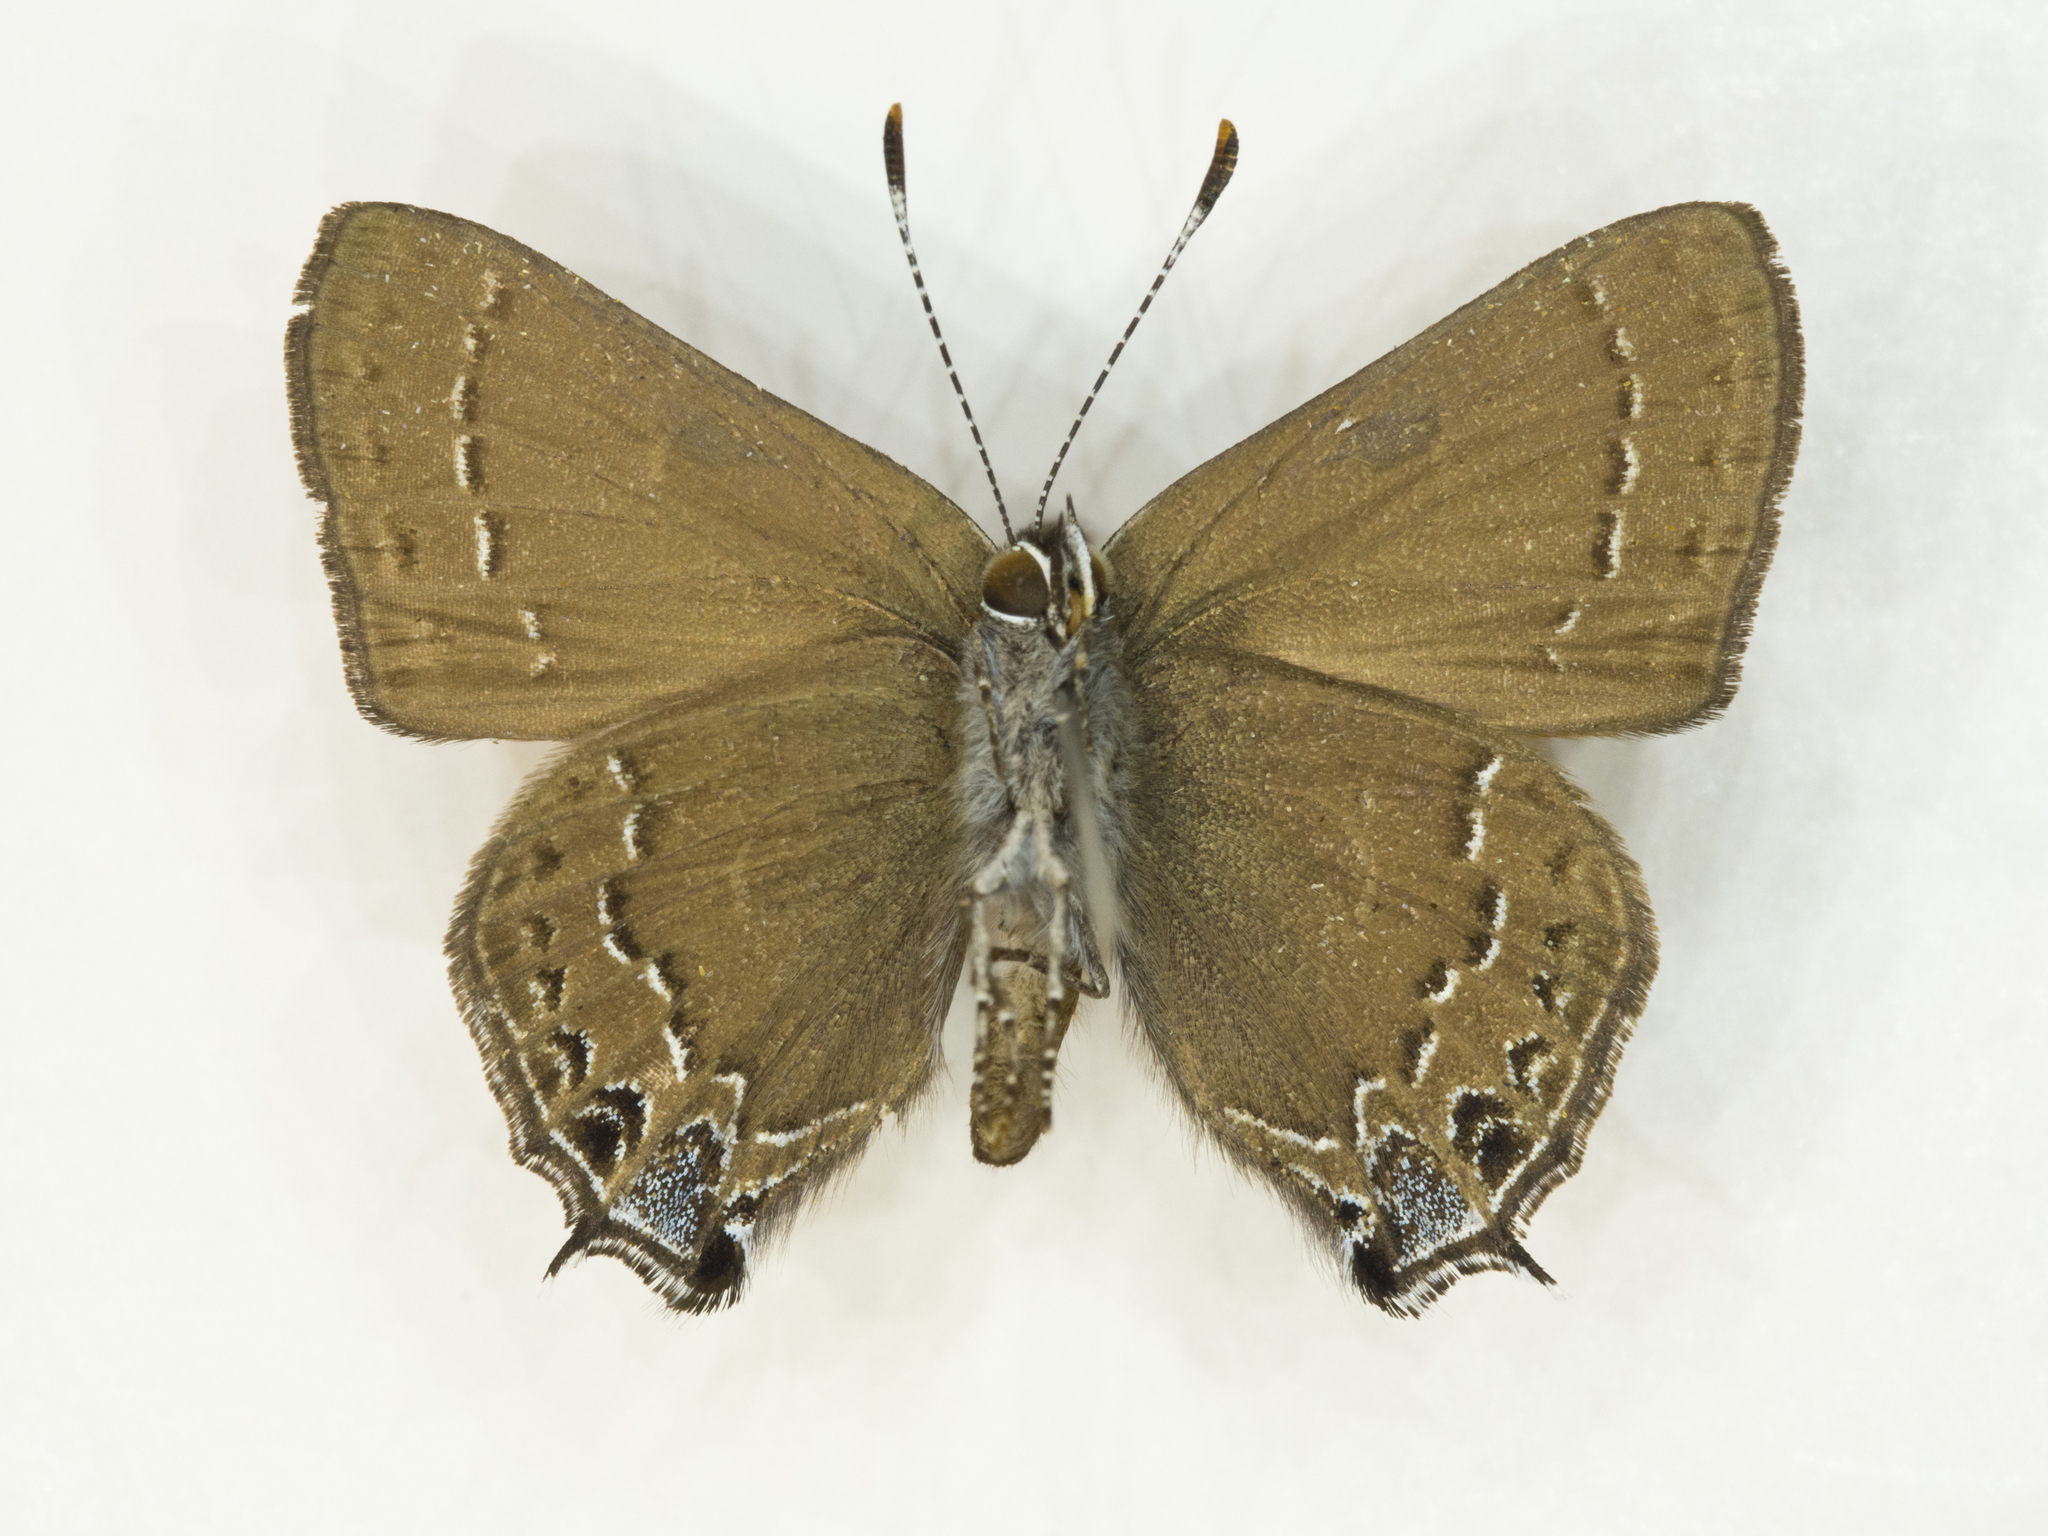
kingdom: Animalia
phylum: Arthropoda
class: Insecta
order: Lepidoptera
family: Lycaenidae
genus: Strymon
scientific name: Strymon saepium
